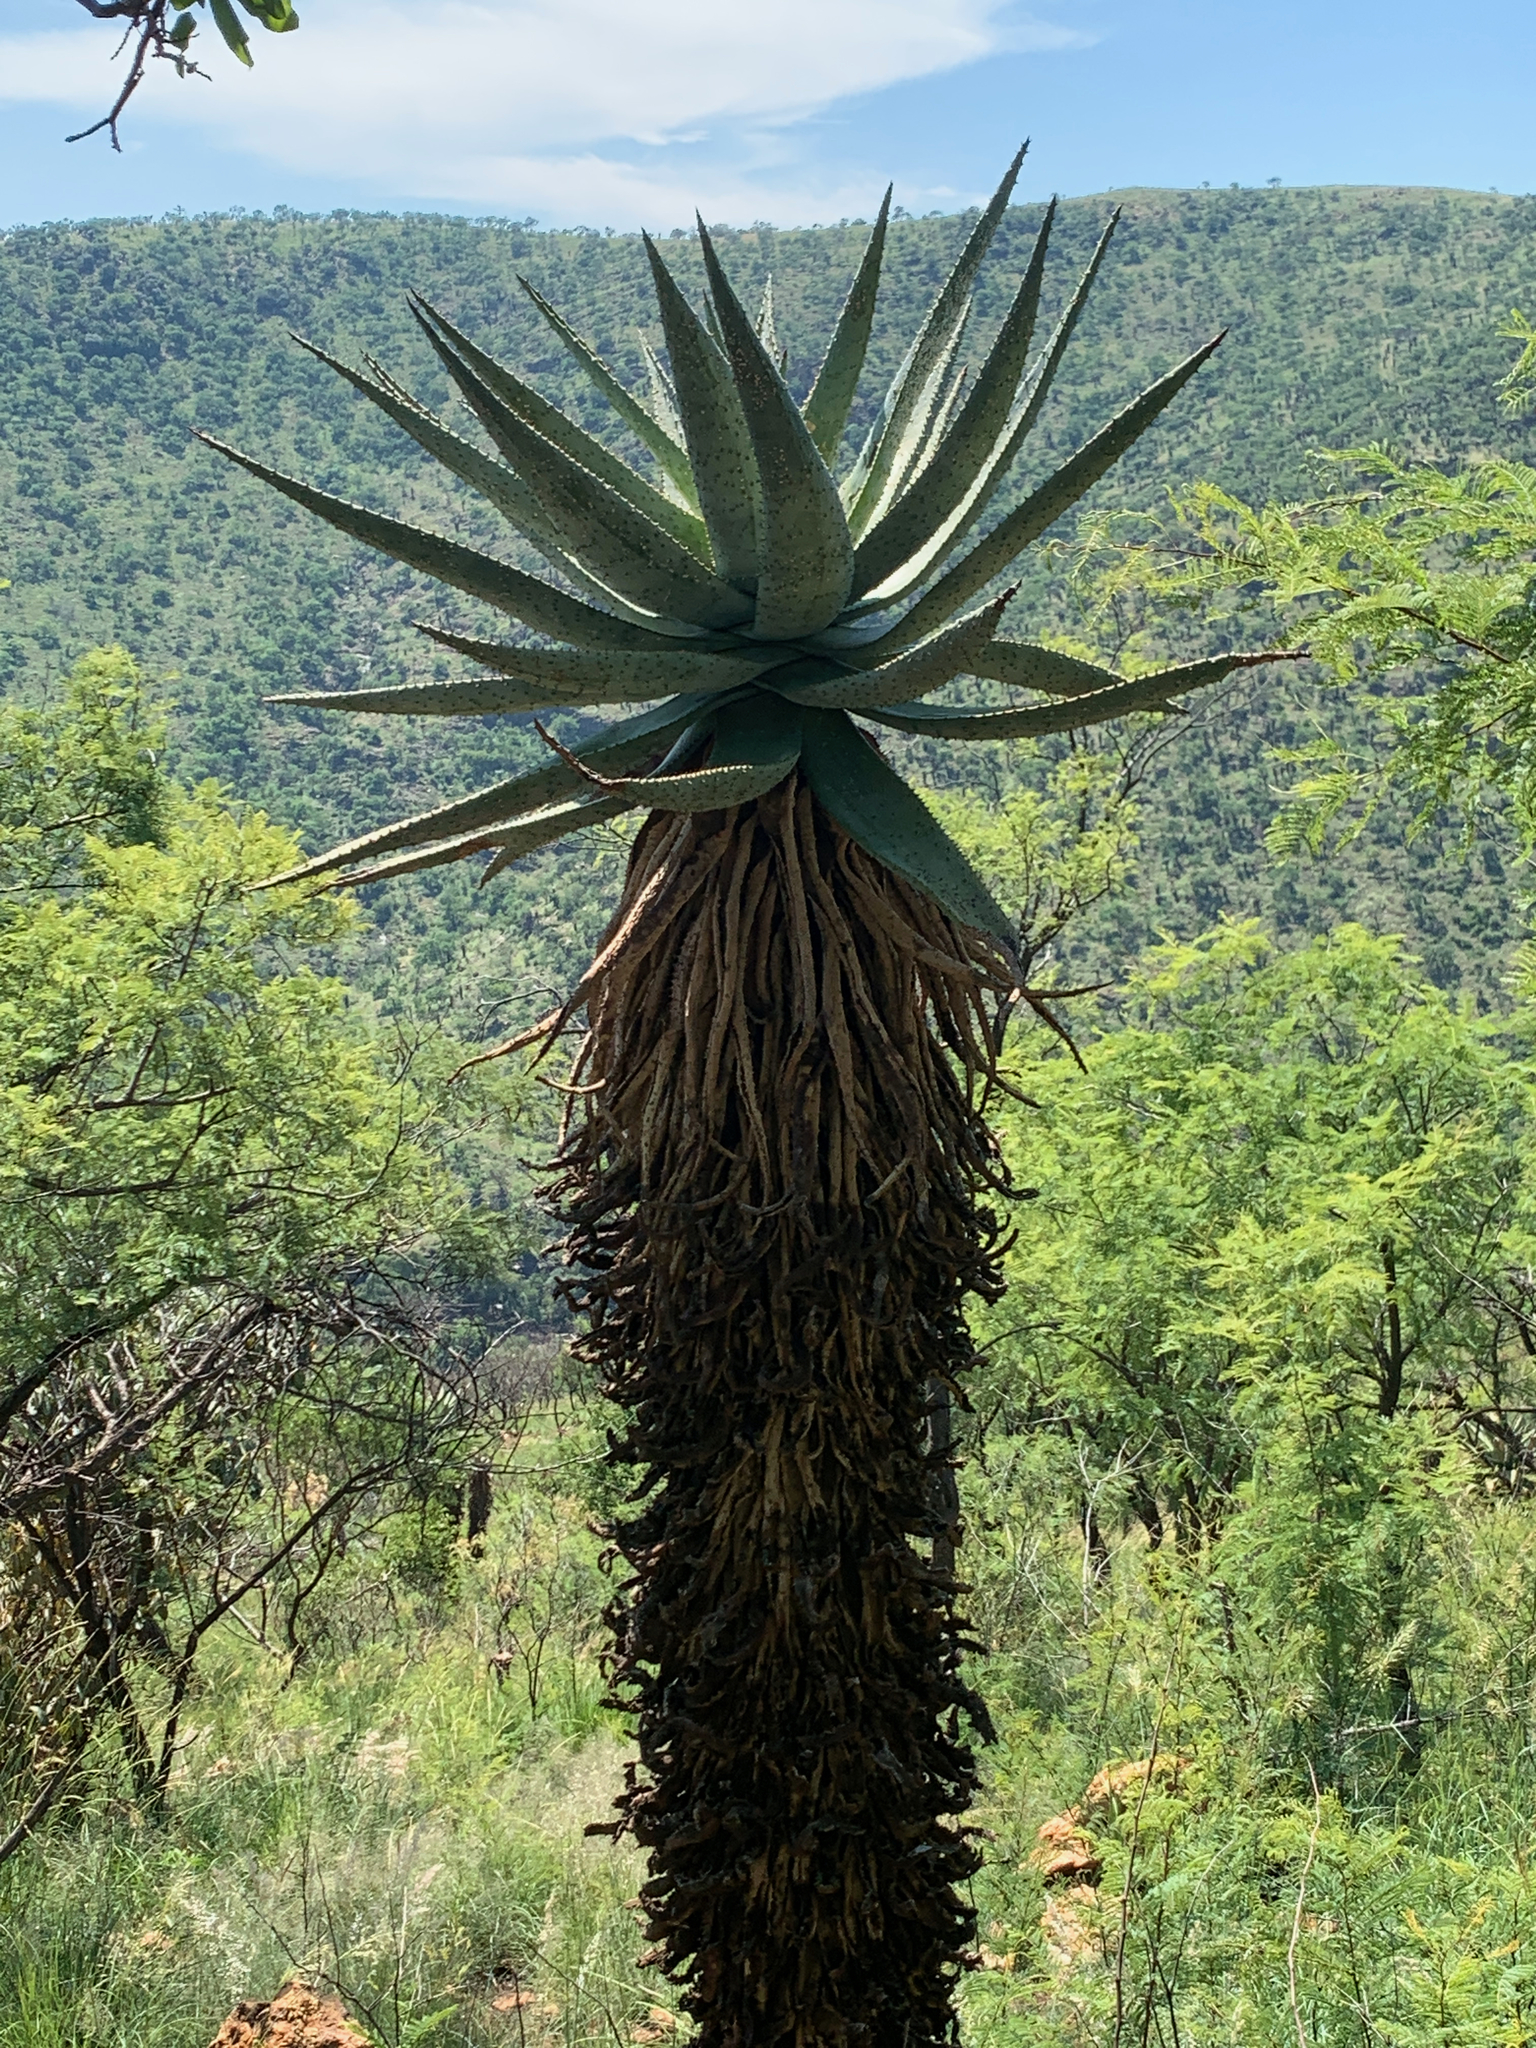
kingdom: Plantae
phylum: Tracheophyta
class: Liliopsida
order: Asparagales
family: Asphodelaceae
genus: Aloe
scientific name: Aloe marlothii
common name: Flat-flowered aloe
